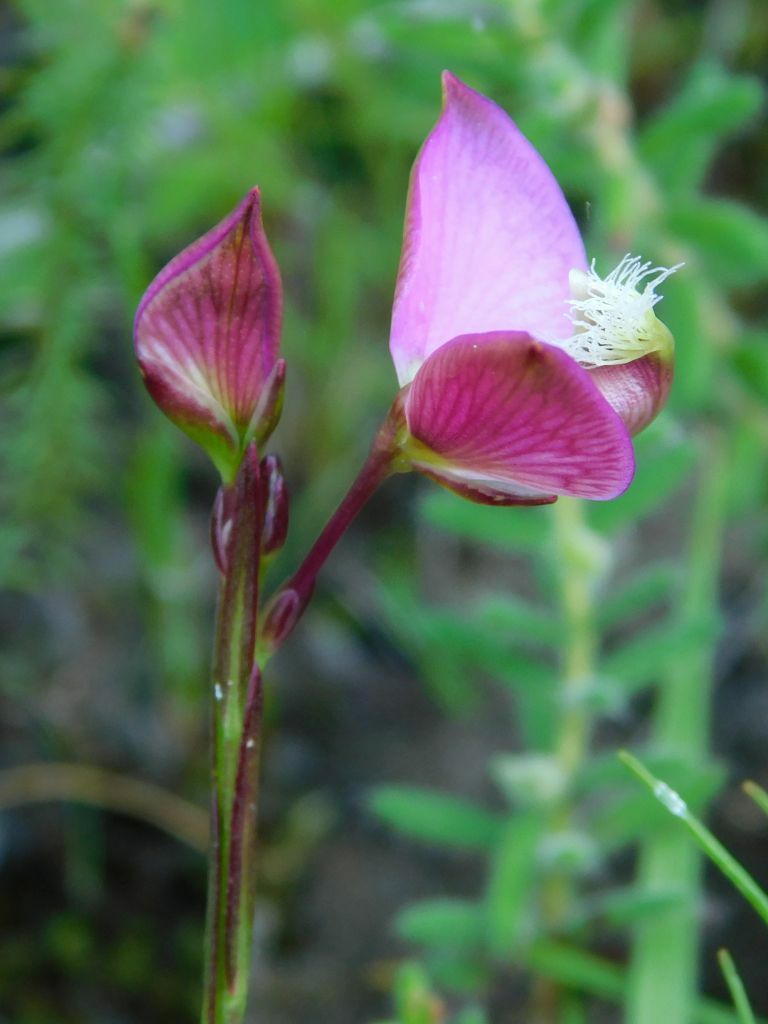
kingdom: Plantae
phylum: Tracheophyta
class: Magnoliopsida
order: Fabales
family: Polygalaceae
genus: Polygala
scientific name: Polygala bracteolata
